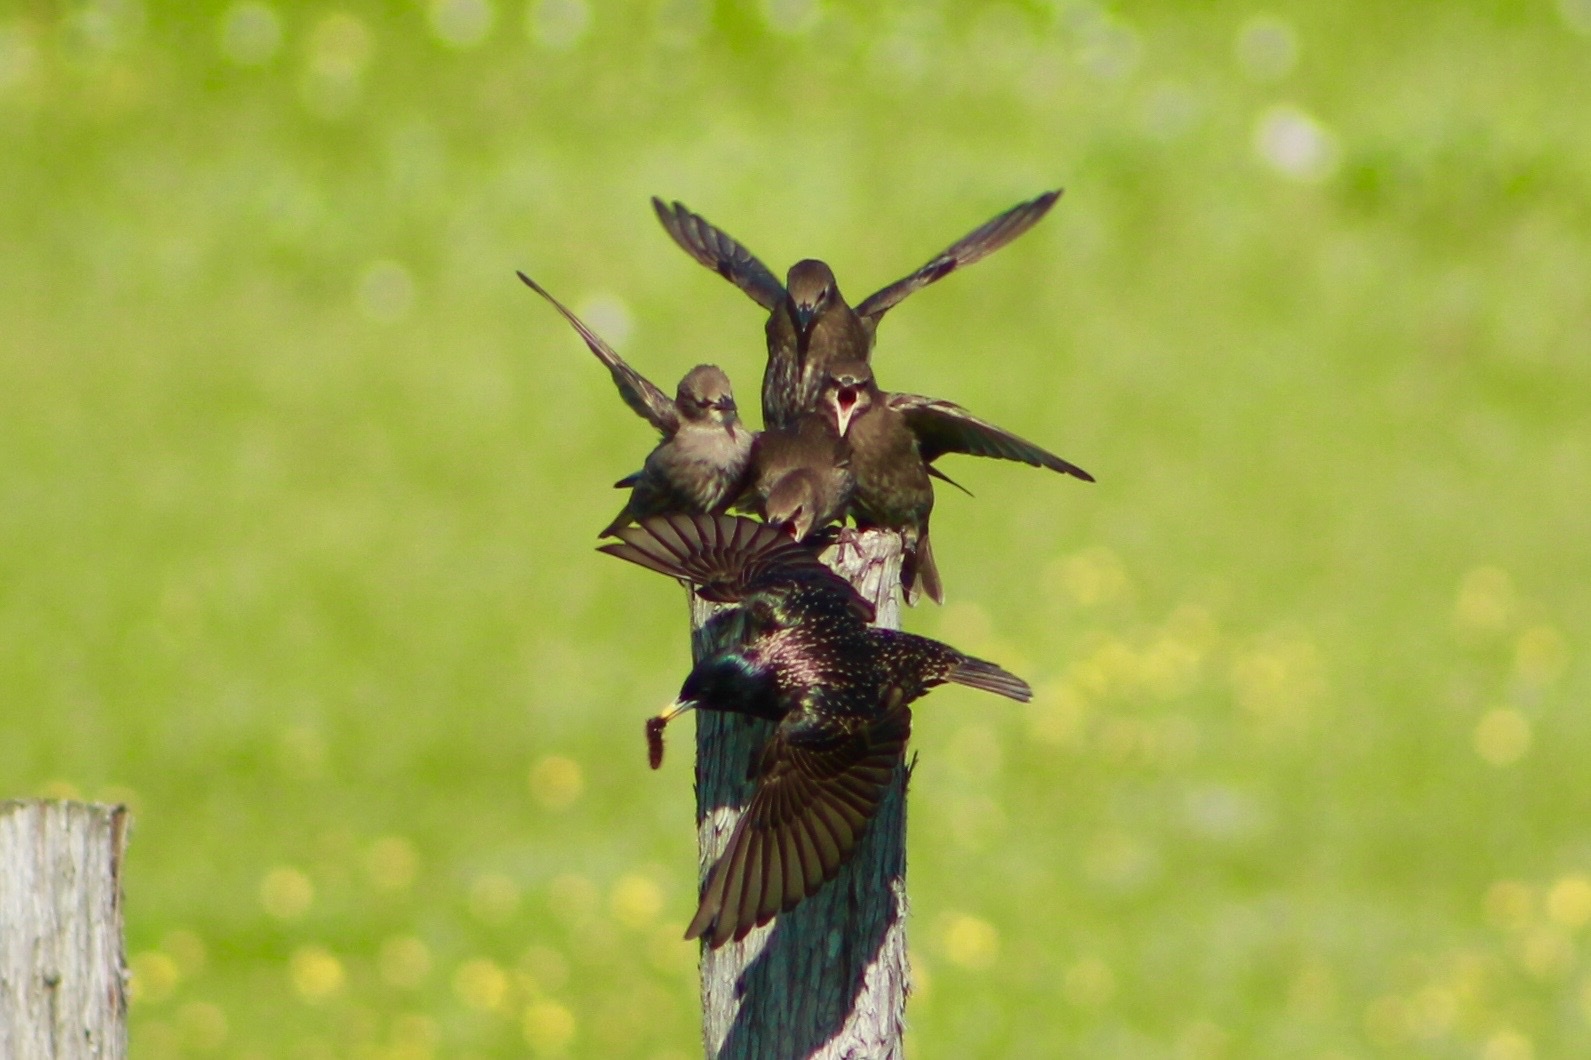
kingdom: Animalia
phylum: Chordata
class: Aves
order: Passeriformes
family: Sturnidae
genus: Sturnus
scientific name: Sturnus vulgaris
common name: Common starling
